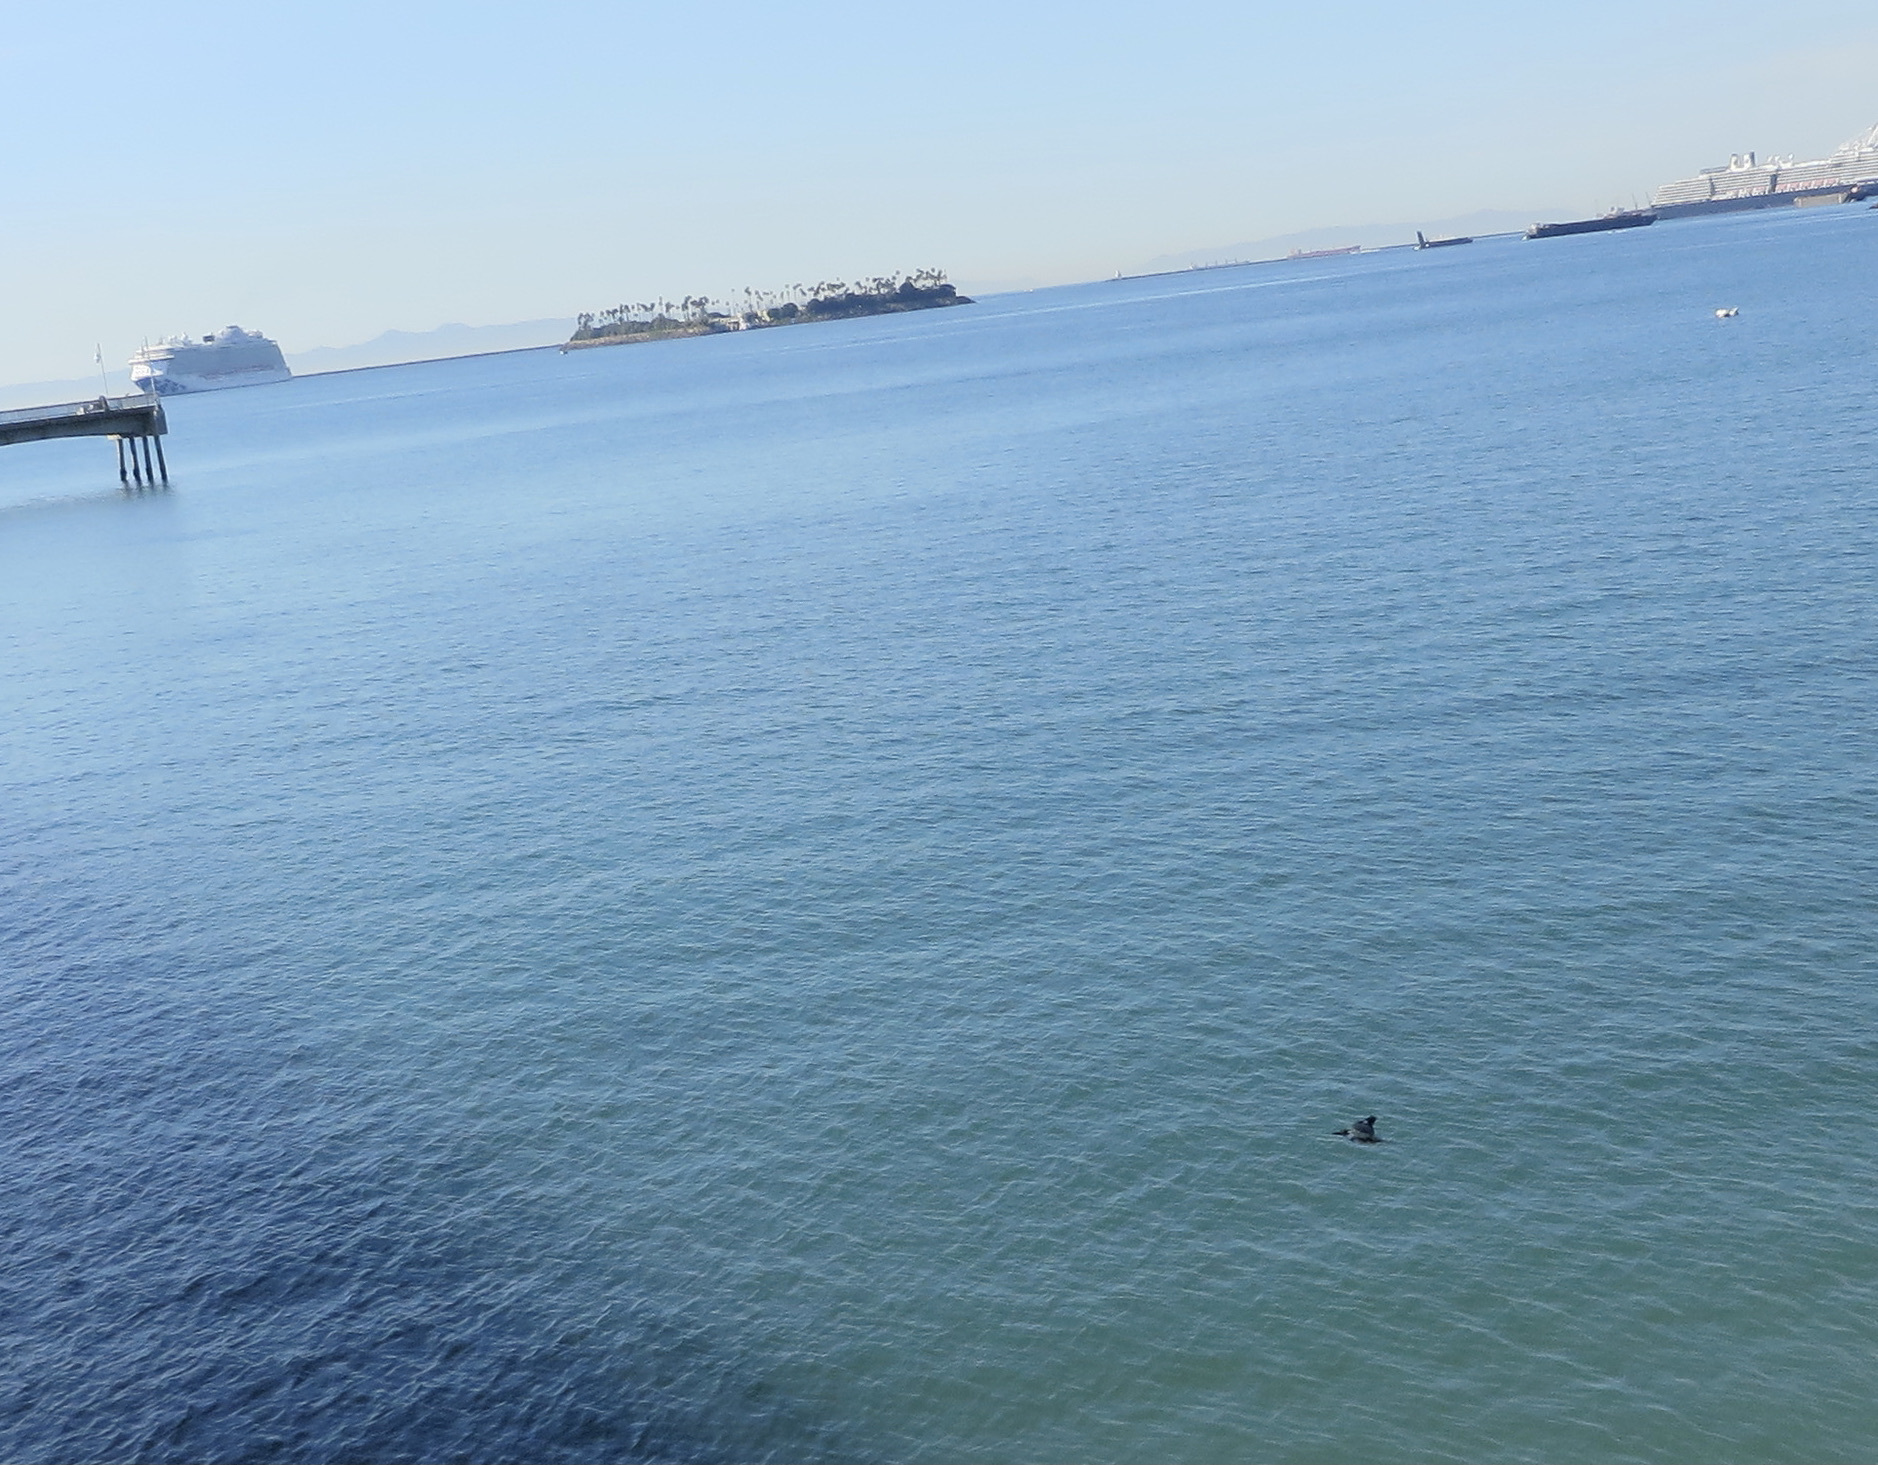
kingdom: Animalia
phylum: Chordata
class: Aves
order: Coraciiformes
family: Alcedinidae
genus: Megaceryle
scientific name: Megaceryle alcyon
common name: Belted kingfisher
